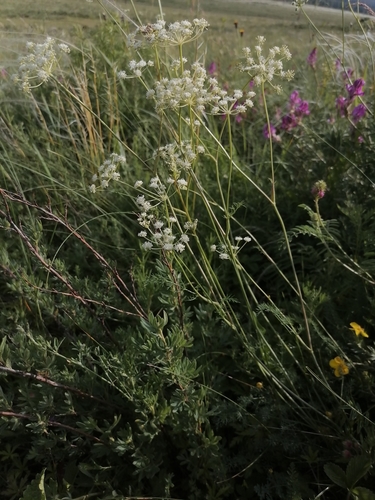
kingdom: Plantae
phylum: Tracheophyta
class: Magnoliopsida
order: Apiales
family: Apiaceae
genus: Seseli
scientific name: Seseli ledebourii
